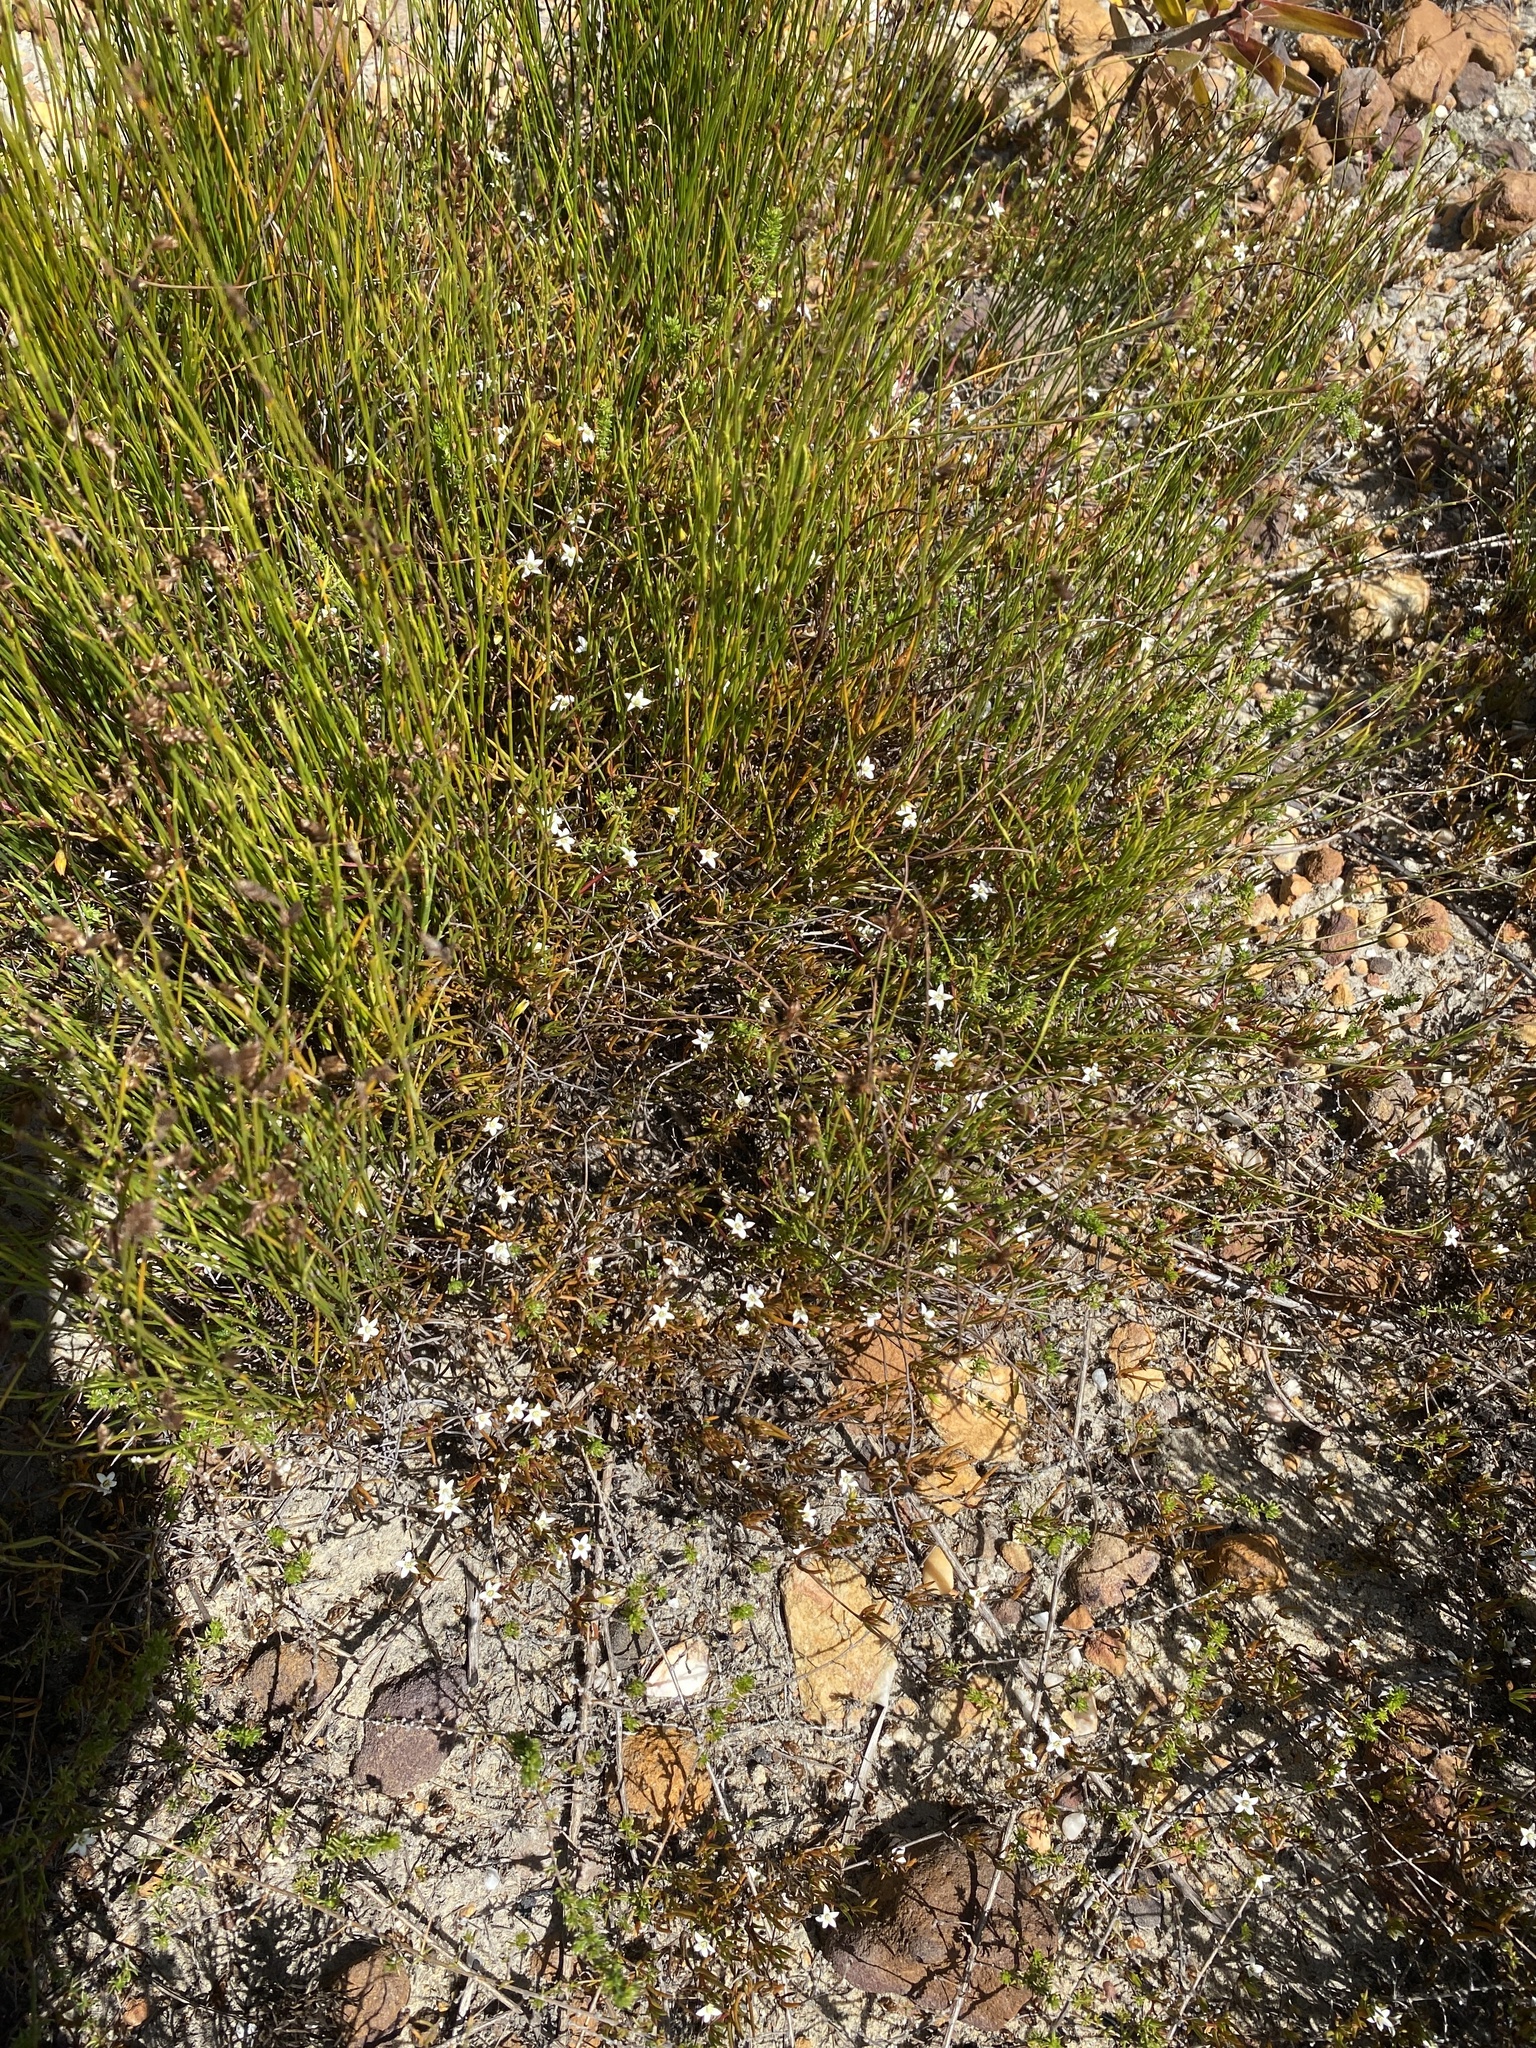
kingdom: Plantae
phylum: Tracheophyta
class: Magnoliopsida
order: Caryophyllales
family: Aizoaceae
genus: Acrosanthes
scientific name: Acrosanthes teretifolia
